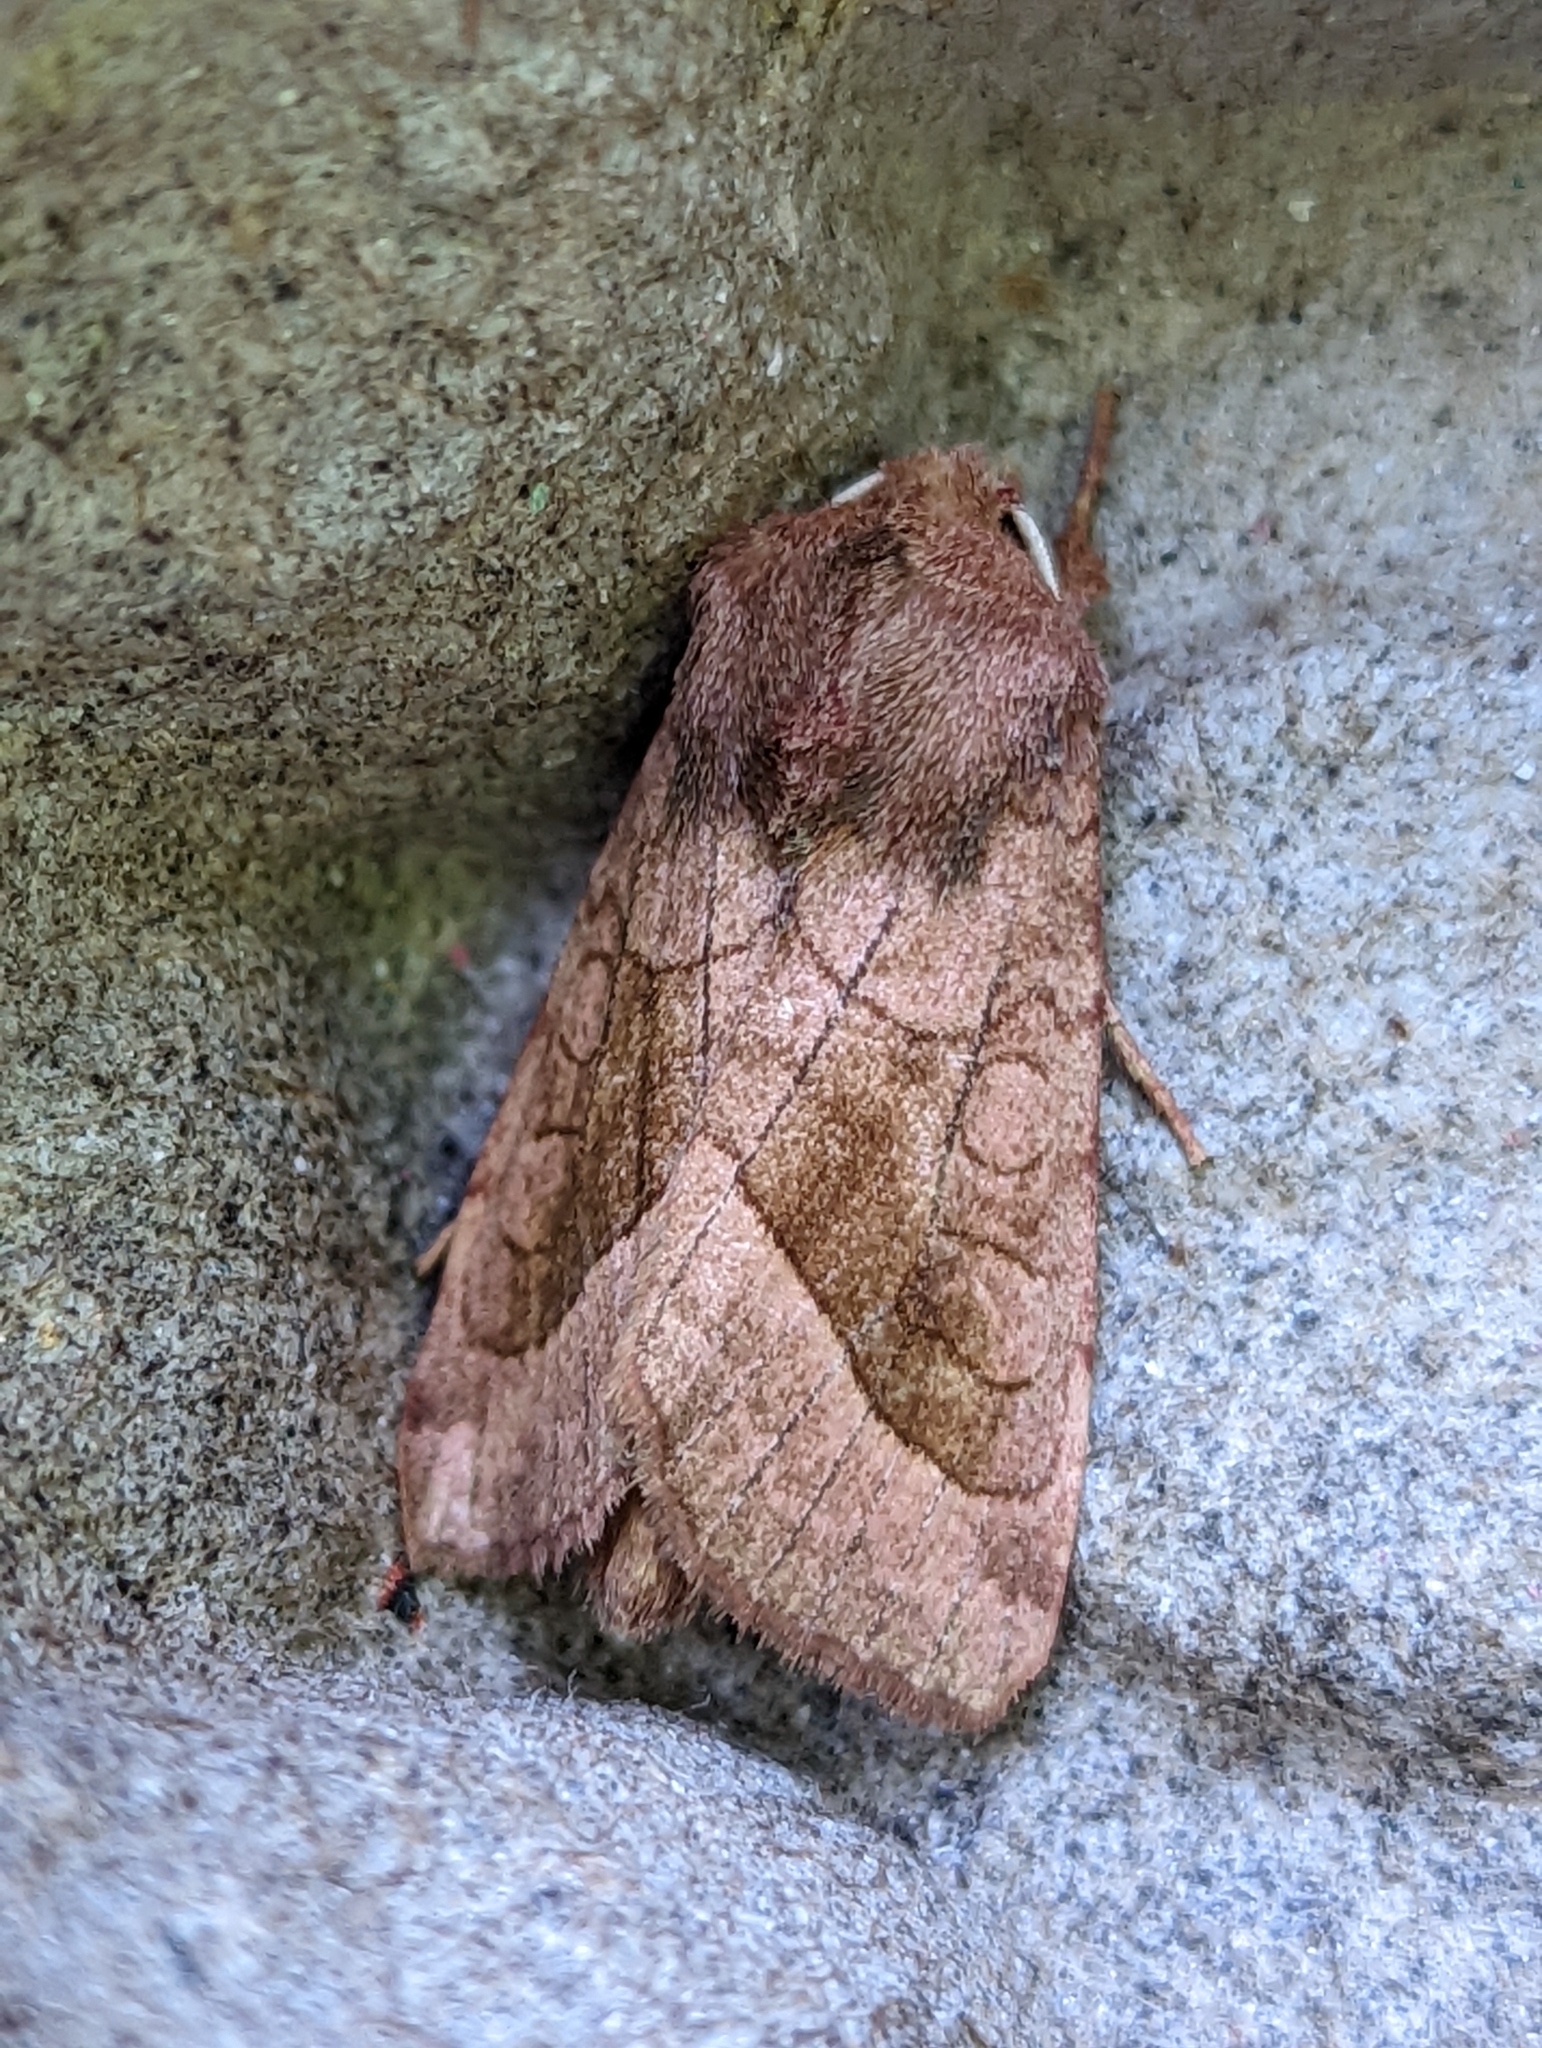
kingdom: Animalia
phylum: Arthropoda
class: Insecta
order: Lepidoptera
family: Noctuidae
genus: Hydraecia
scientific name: Hydraecia micacea
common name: Rosy rustic
